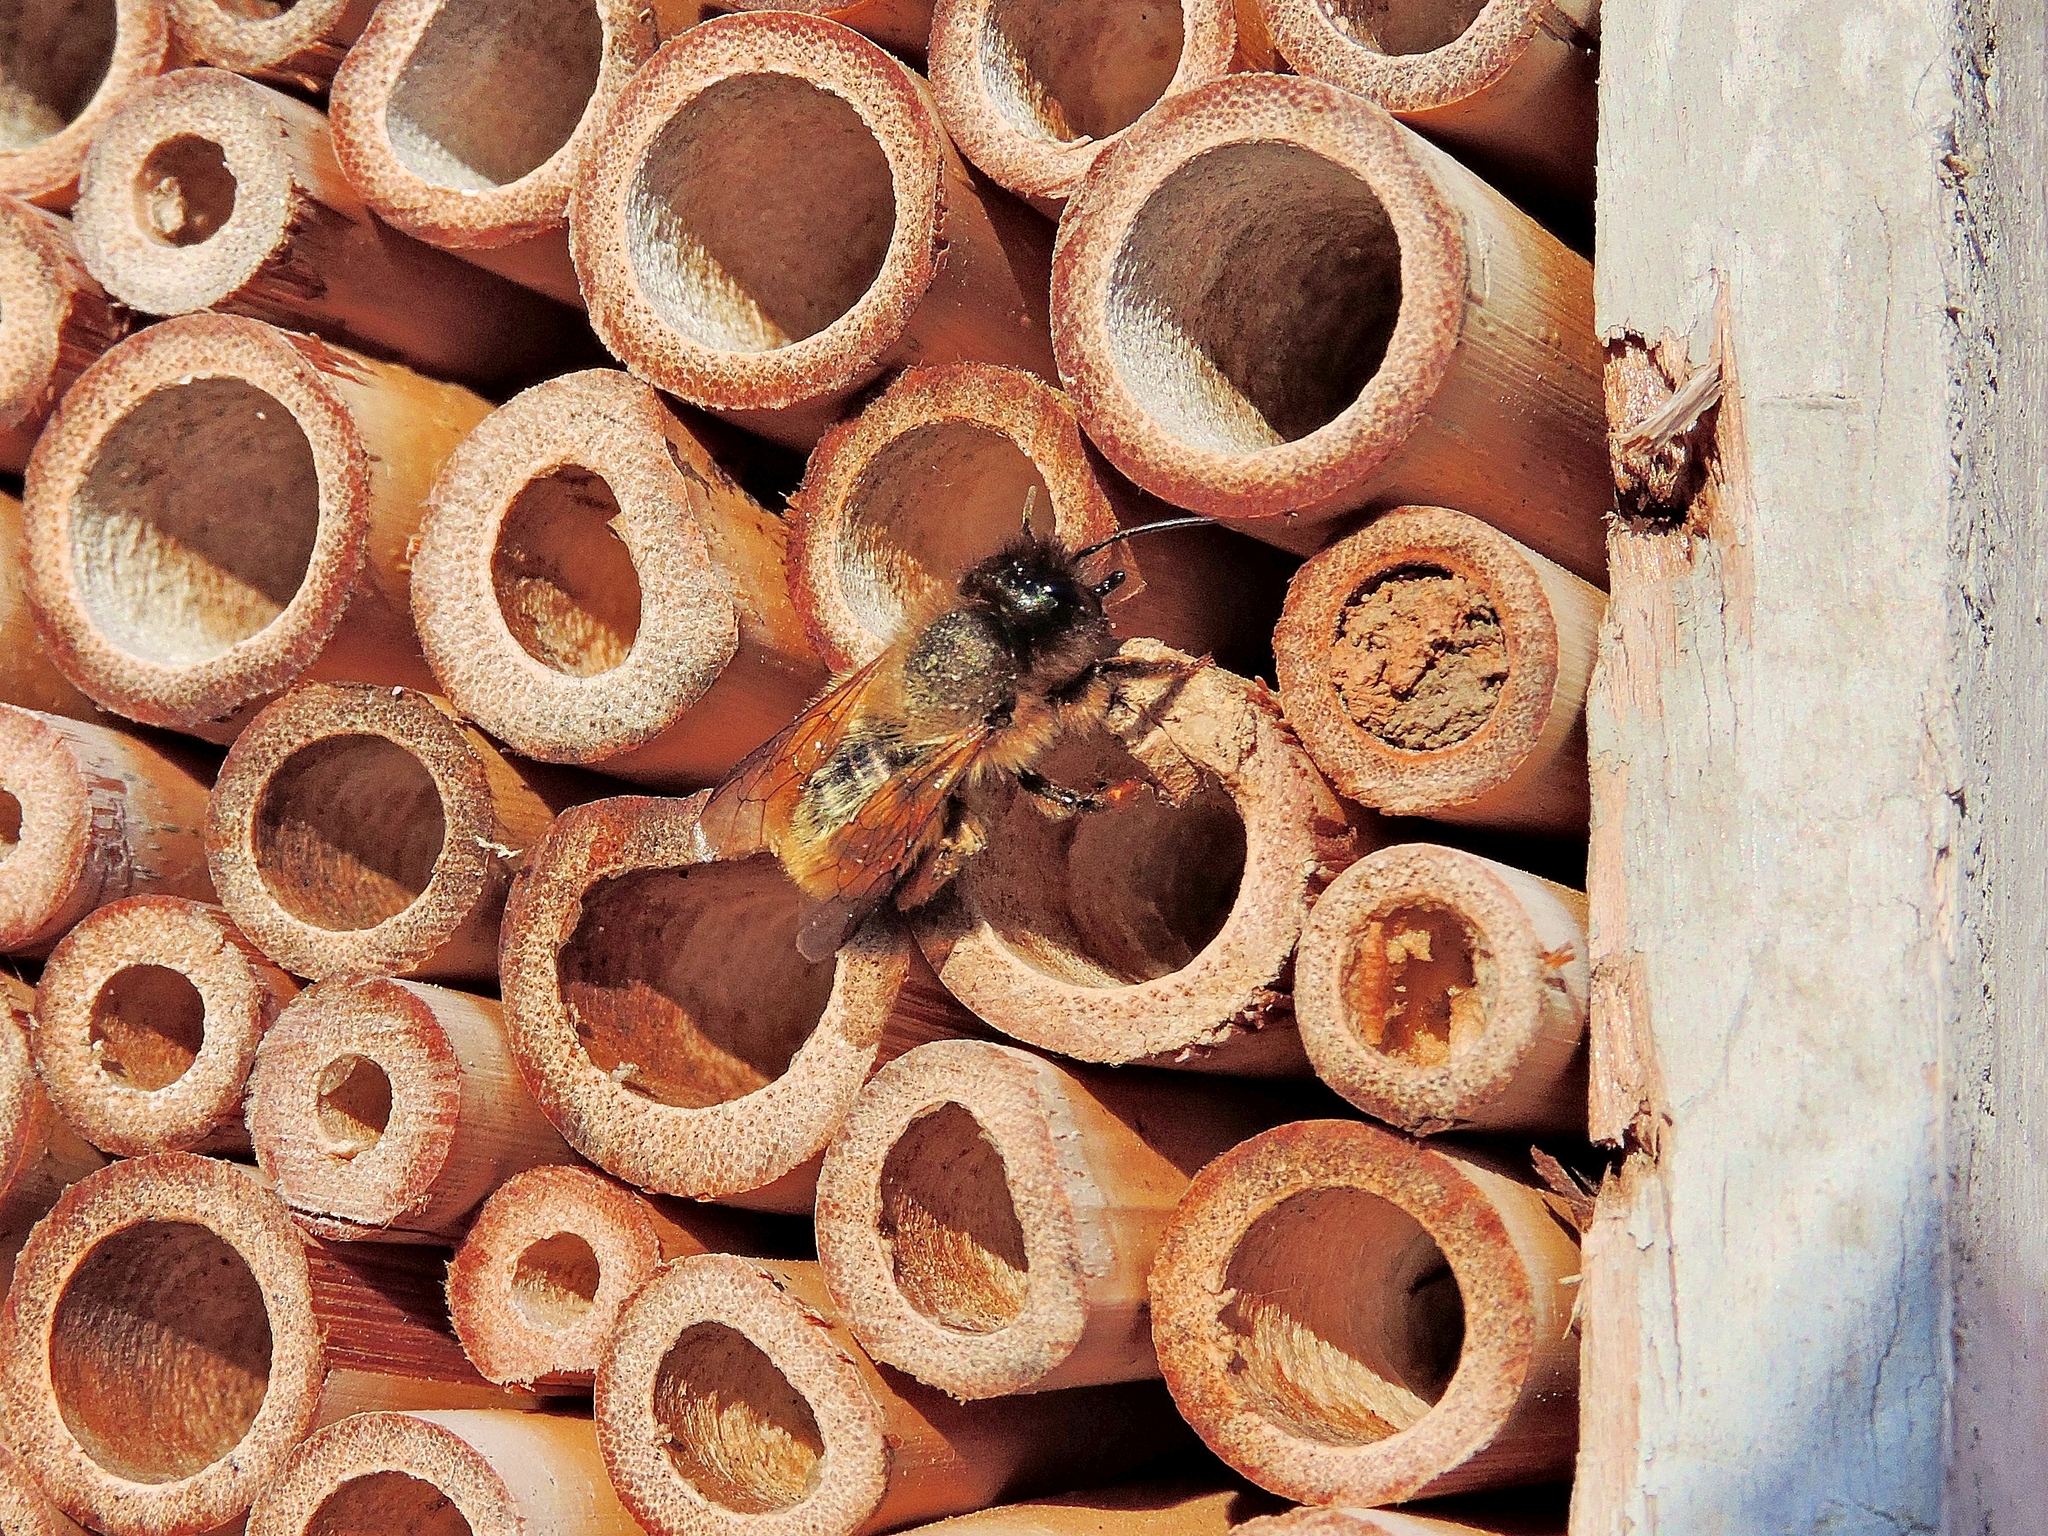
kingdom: Animalia
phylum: Arthropoda
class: Insecta
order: Hymenoptera
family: Megachilidae
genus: Osmia
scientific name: Osmia bicornis
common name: Red mason bee
